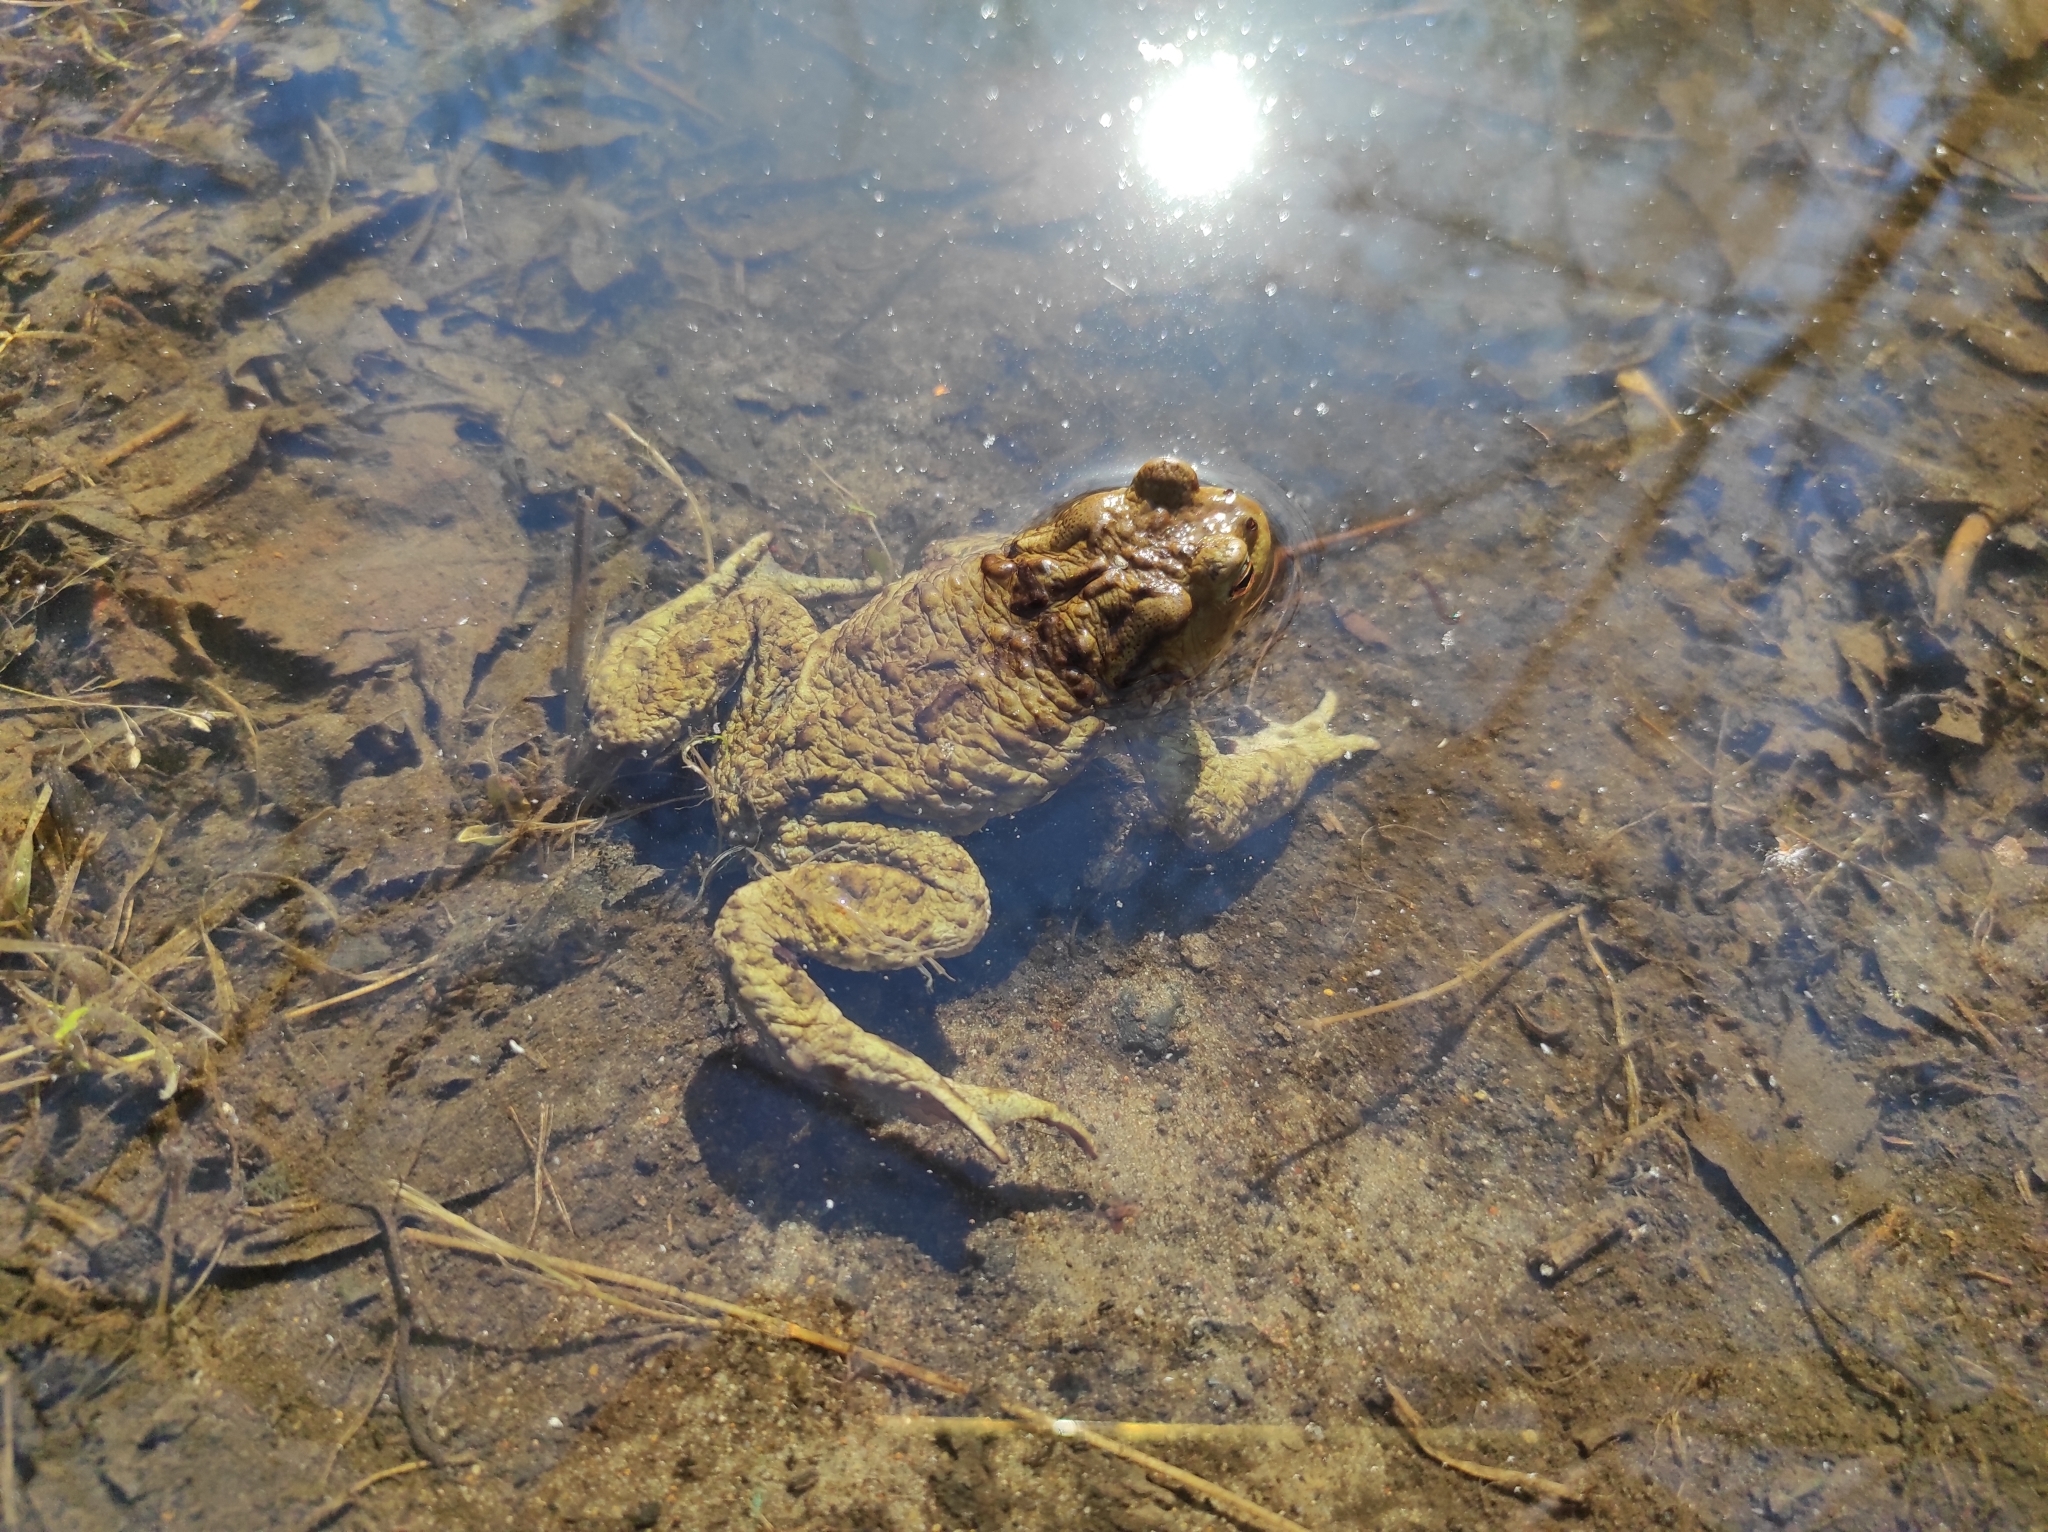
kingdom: Animalia
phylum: Chordata
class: Amphibia
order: Anura
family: Bufonidae
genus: Bufo
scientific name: Bufo bufo
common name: Common toad
